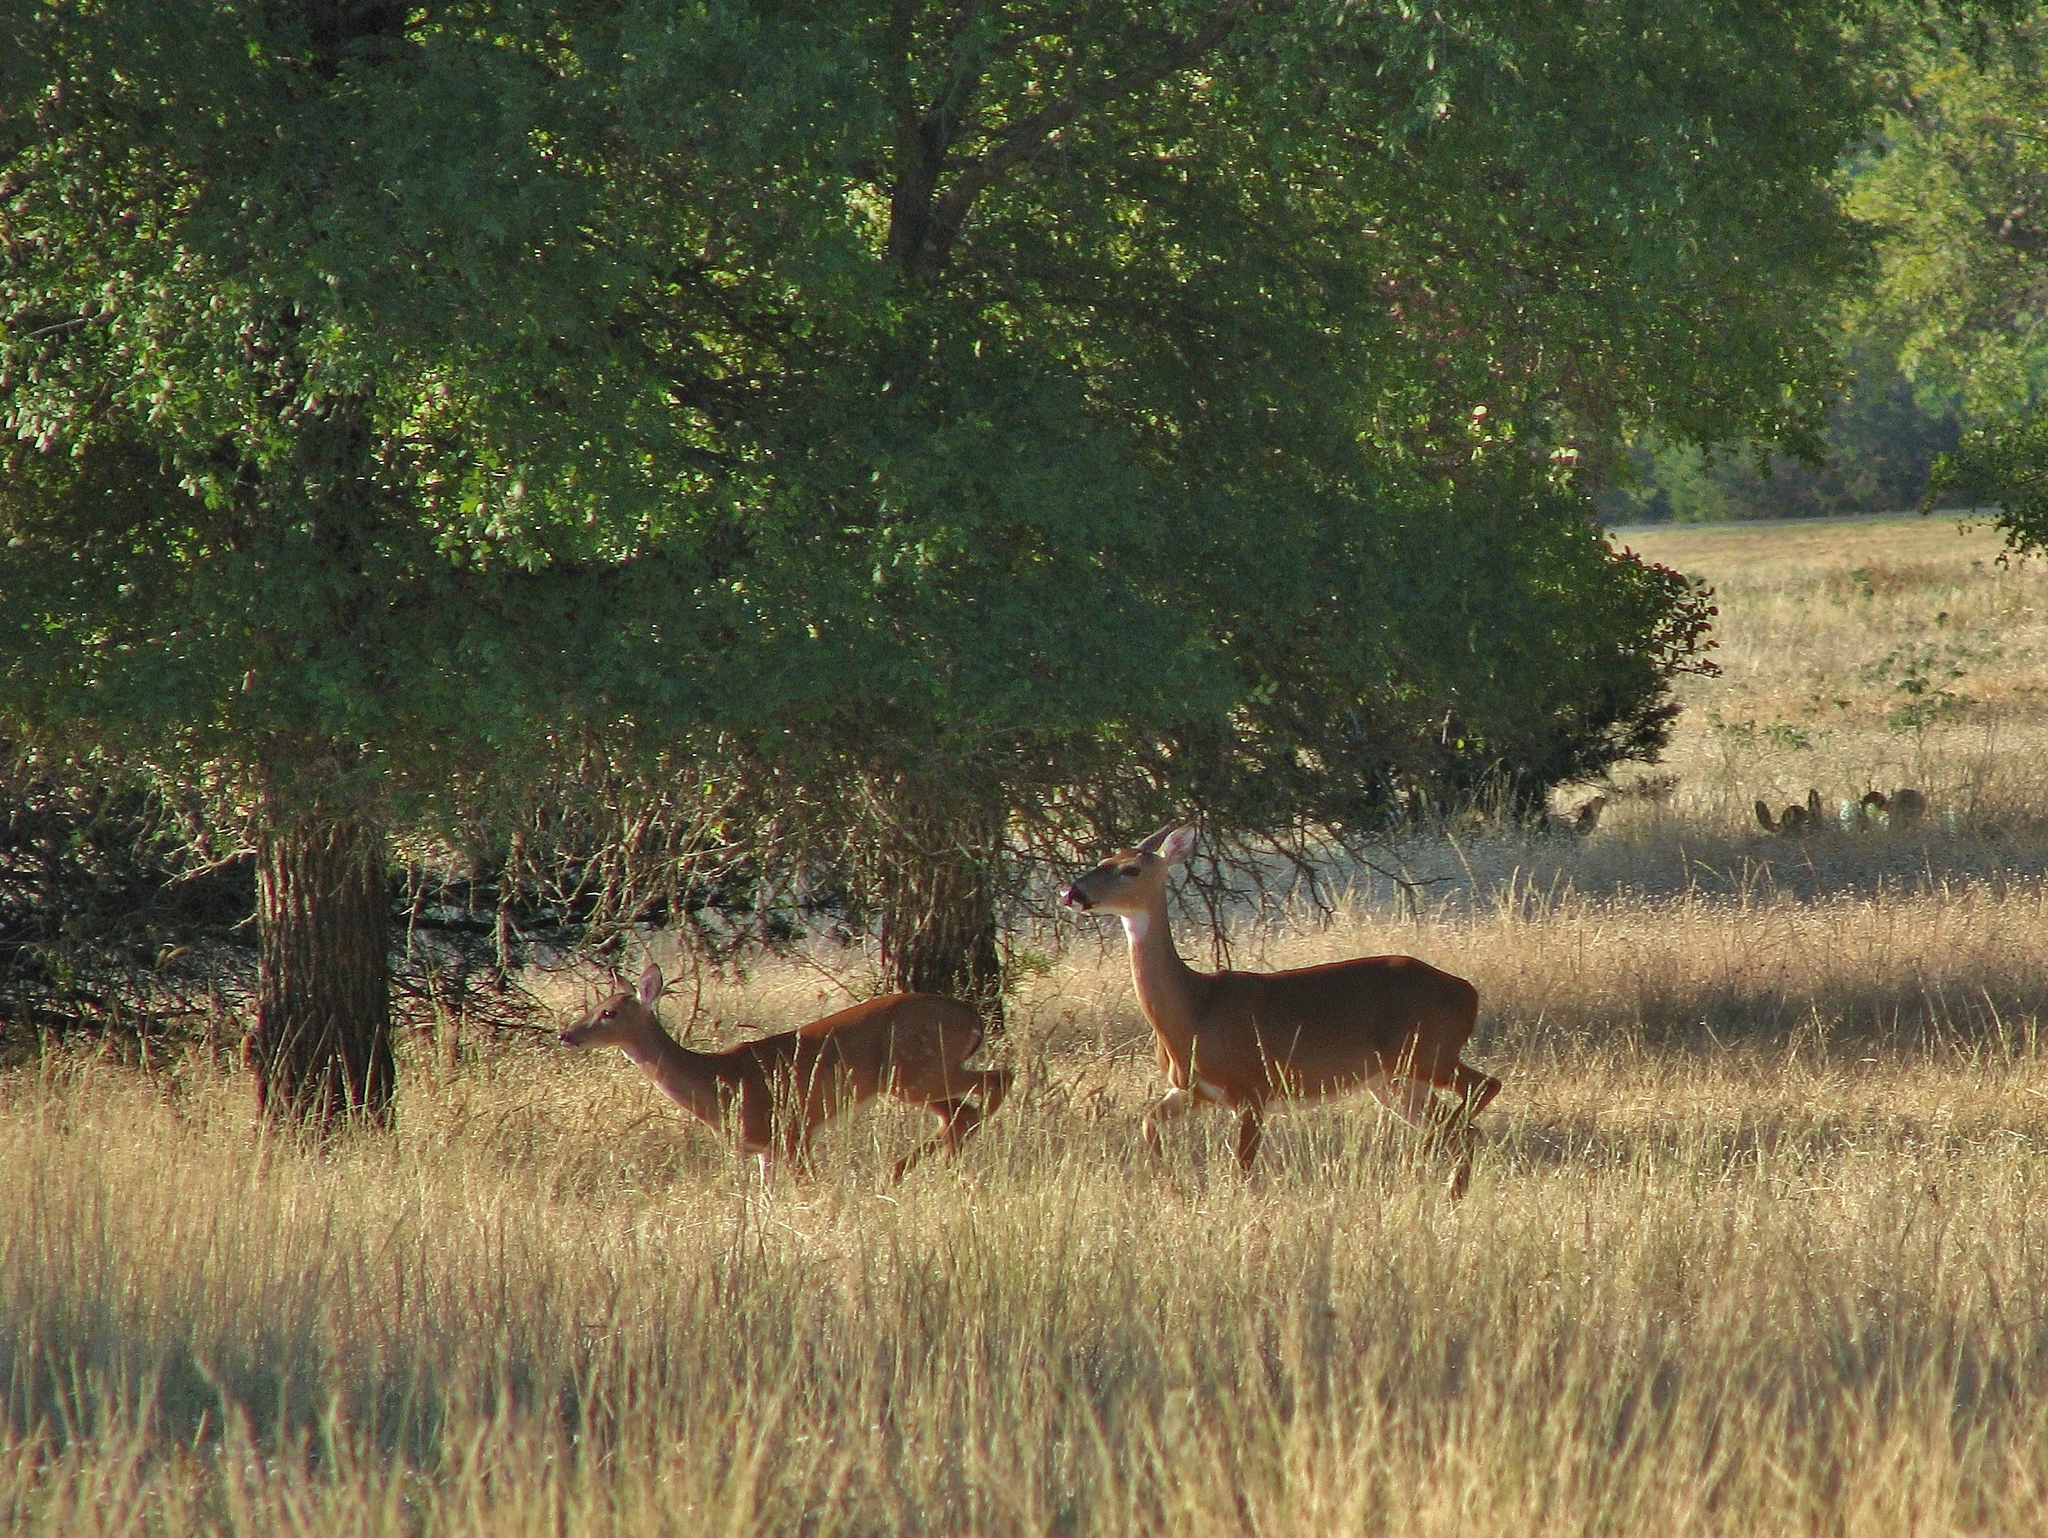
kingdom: Animalia
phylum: Chordata
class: Mammalia
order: Artiodactyla
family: Cervidae
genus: Odocoileus
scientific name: Odocoileus virginianus
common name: White-tailed deer
